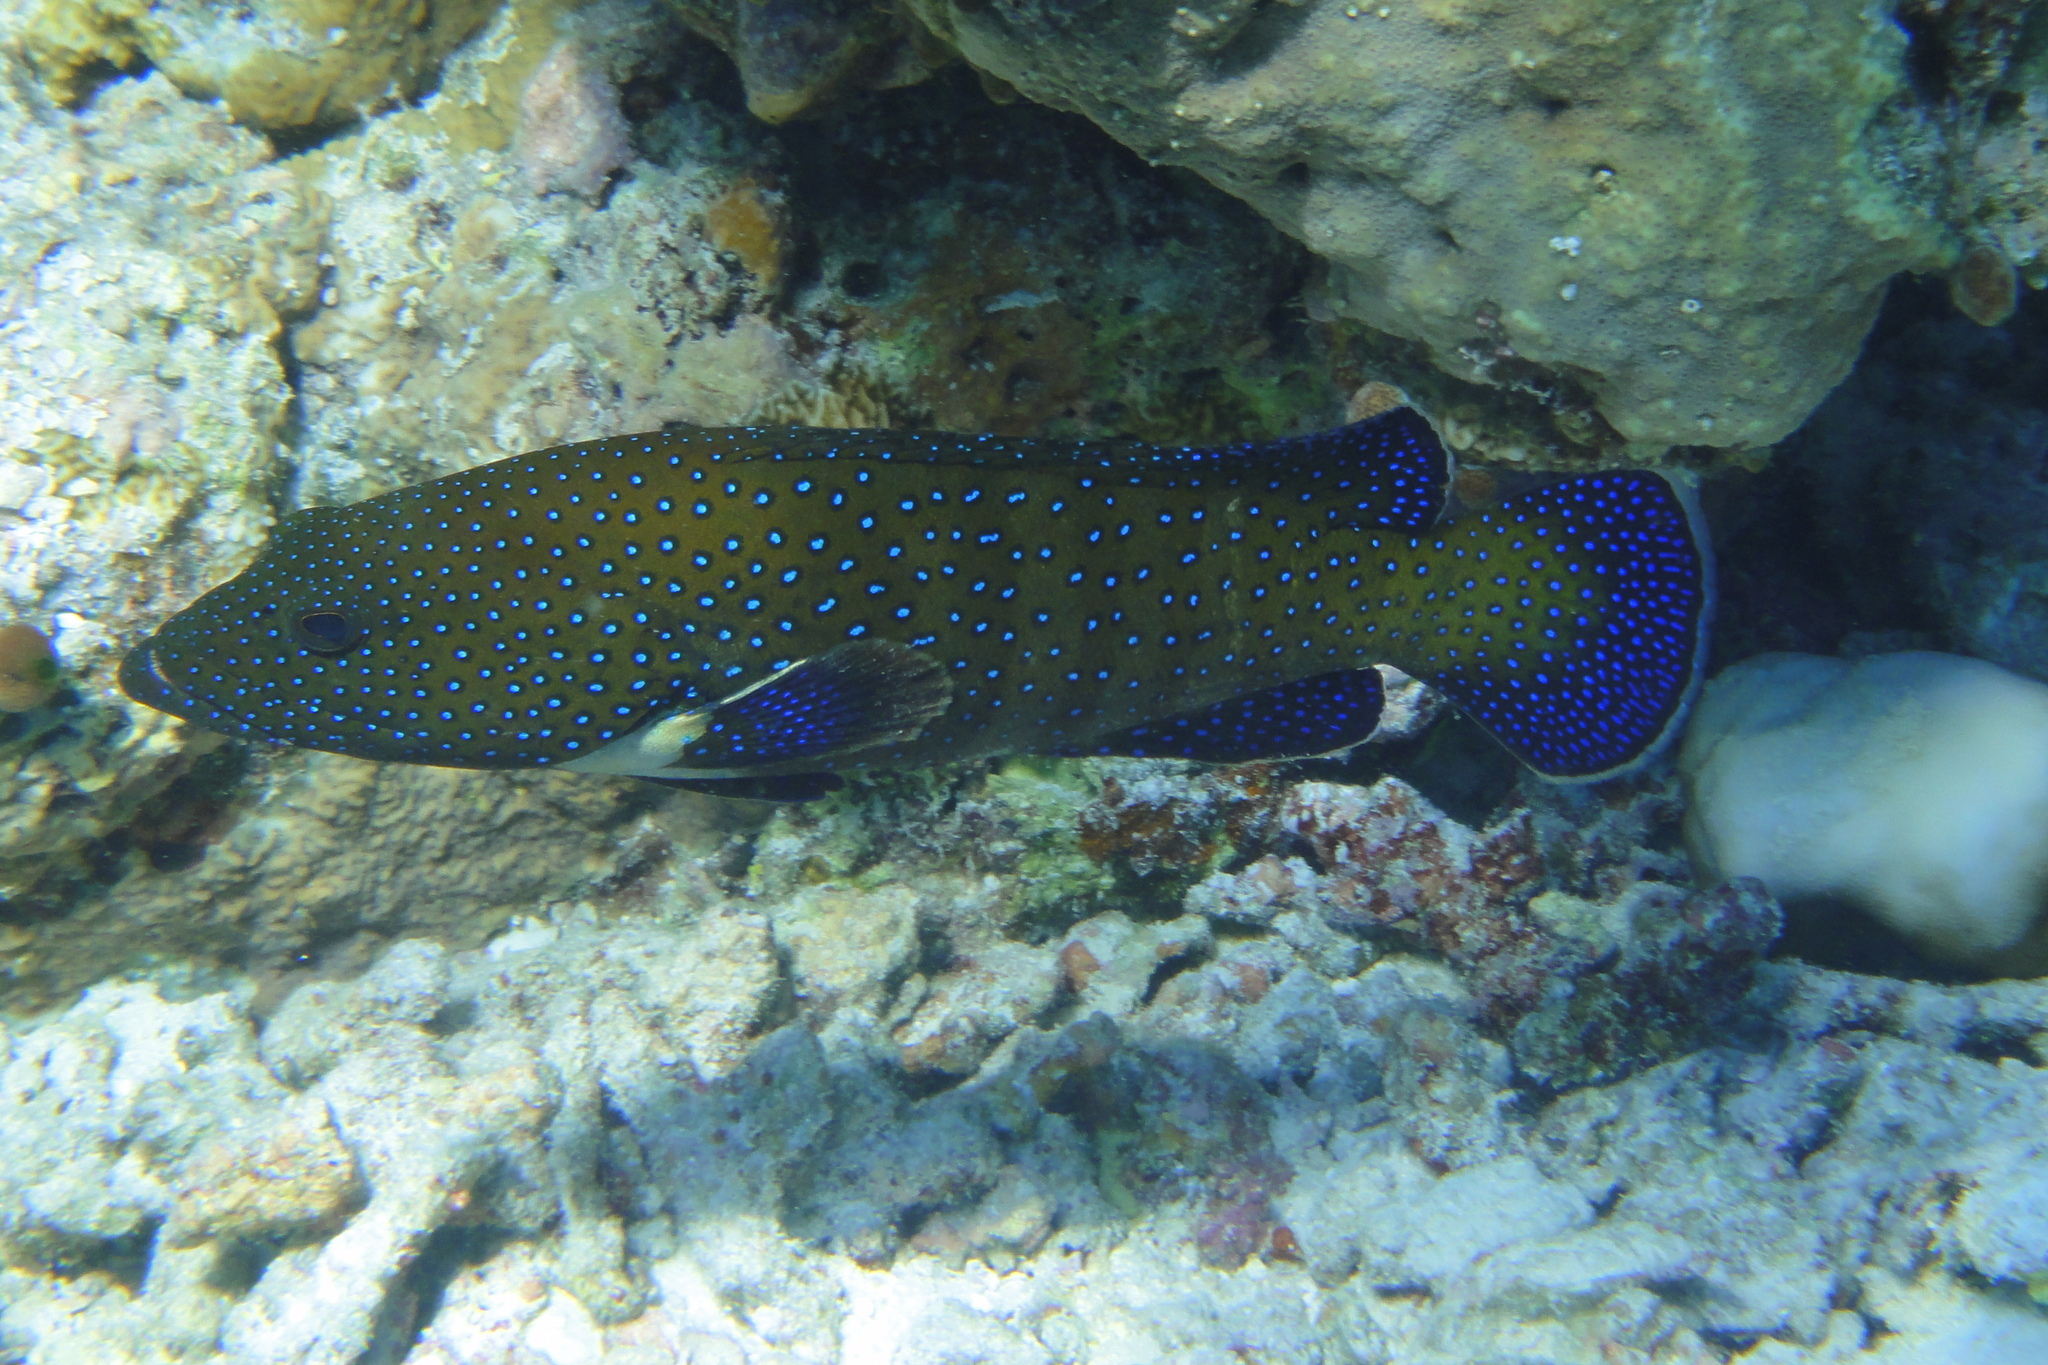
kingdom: Animalia
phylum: Chordata
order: Perciformes
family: Serranidae
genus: Cephalopholis
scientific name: Cephalopholis argus
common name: Peacock grouper
